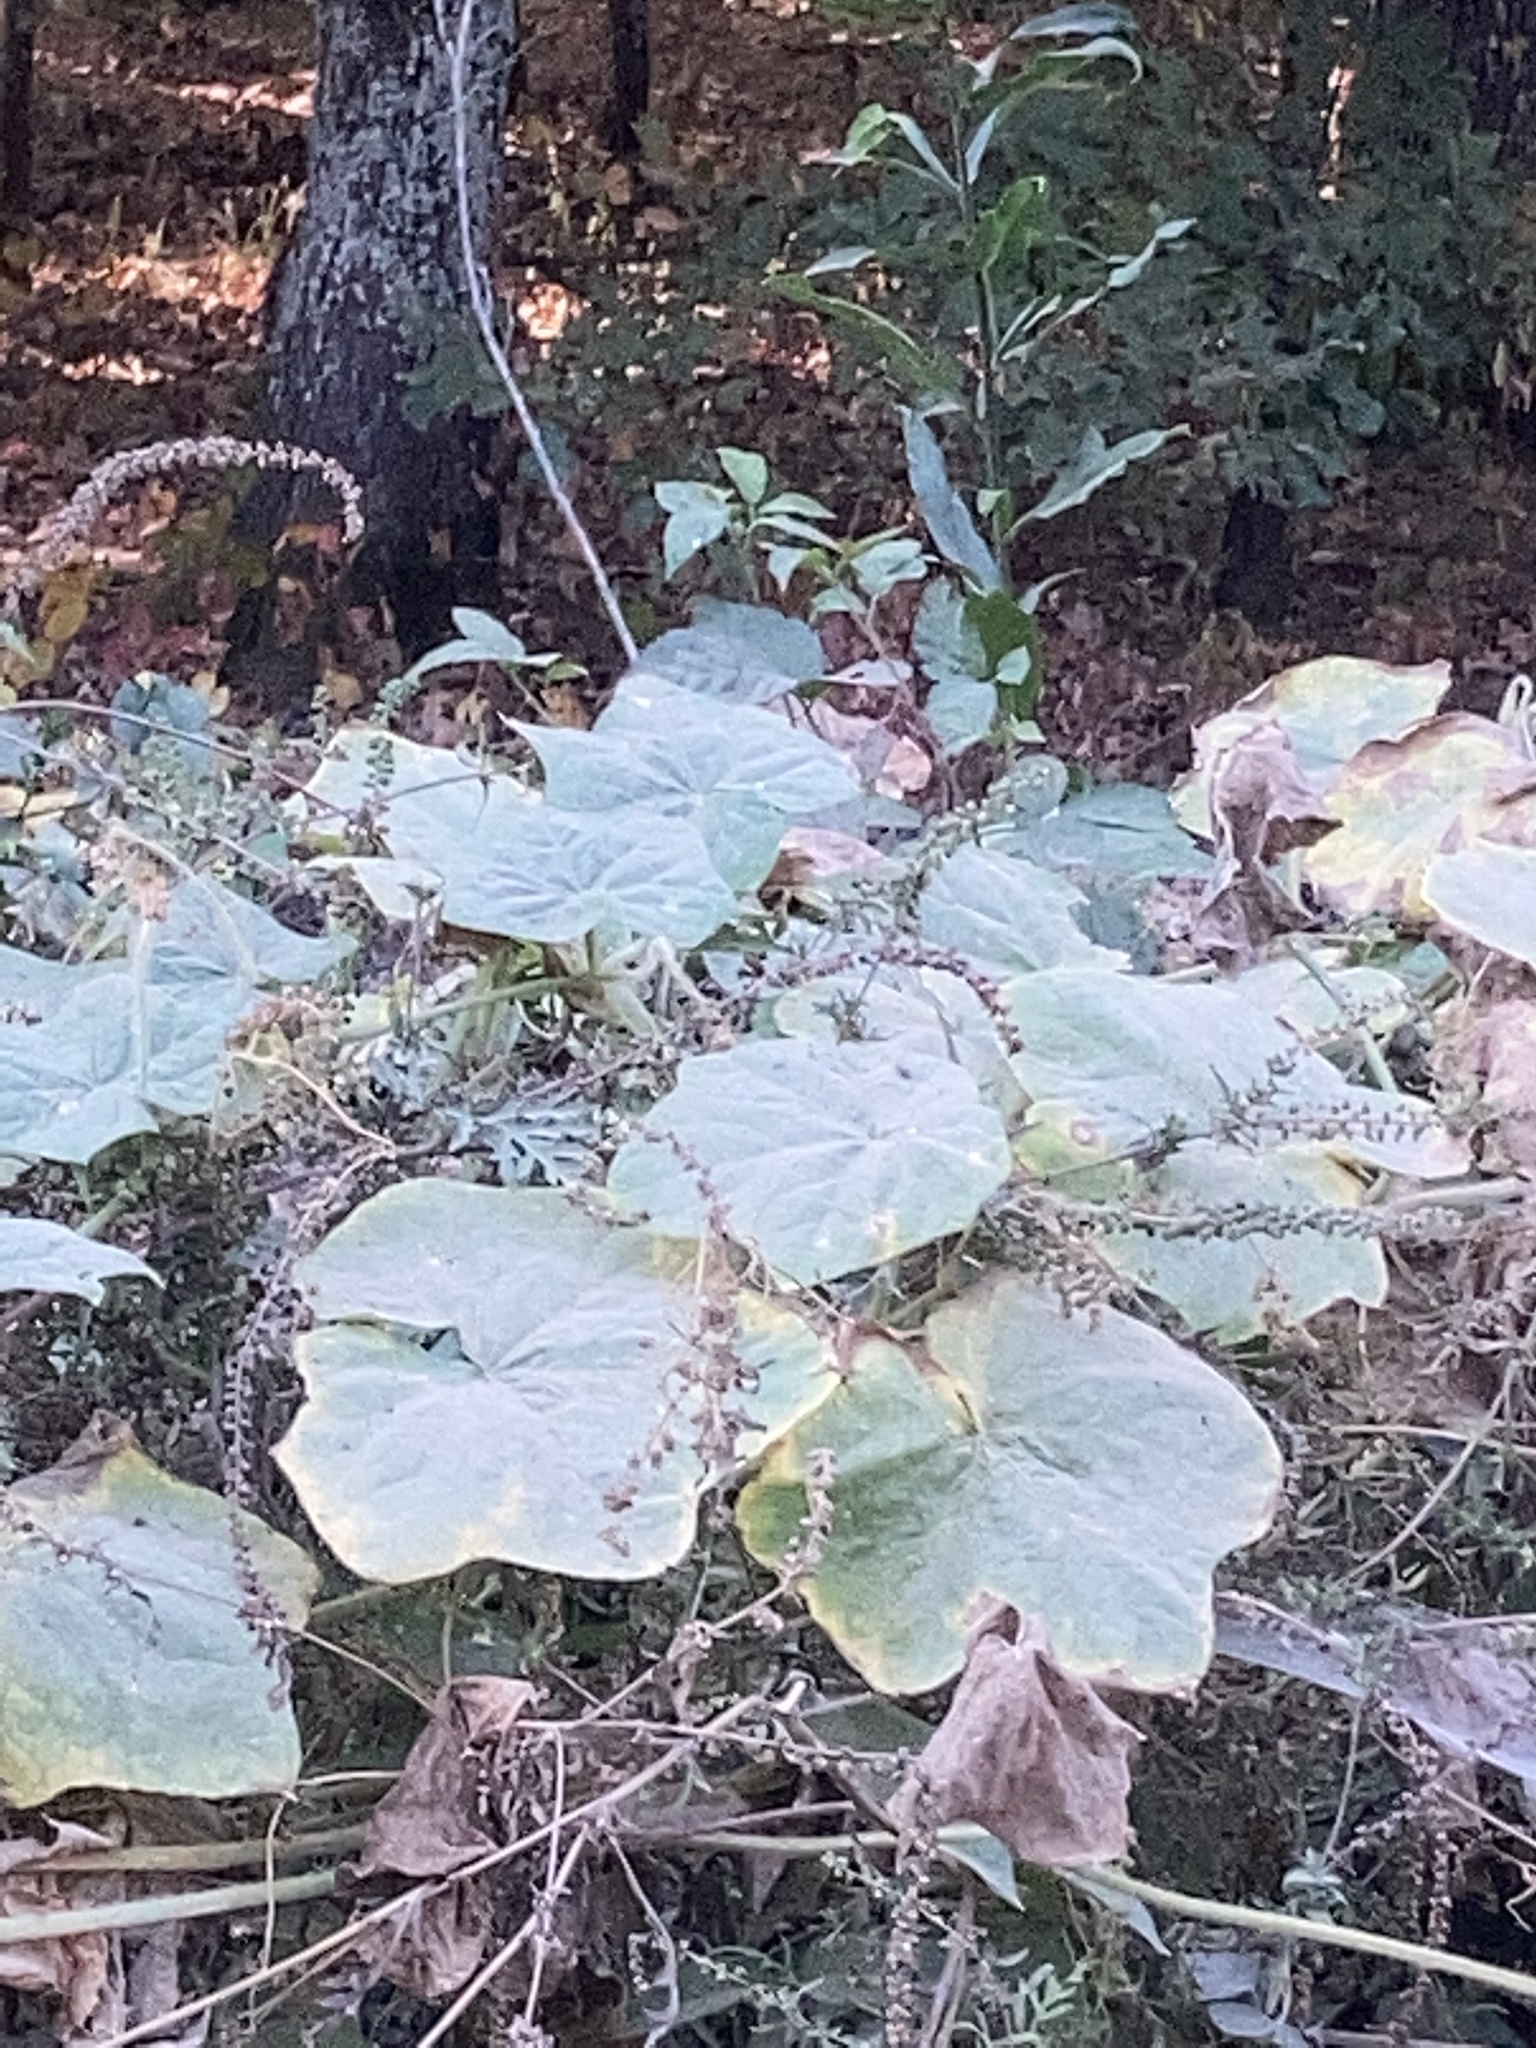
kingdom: Plantae
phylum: Tracheophyta
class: Magnoliopsida
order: Cucurbitales
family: Cucurbitaceae
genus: Sicyos
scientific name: Sicyos angulatus
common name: Angled burr cucumber
